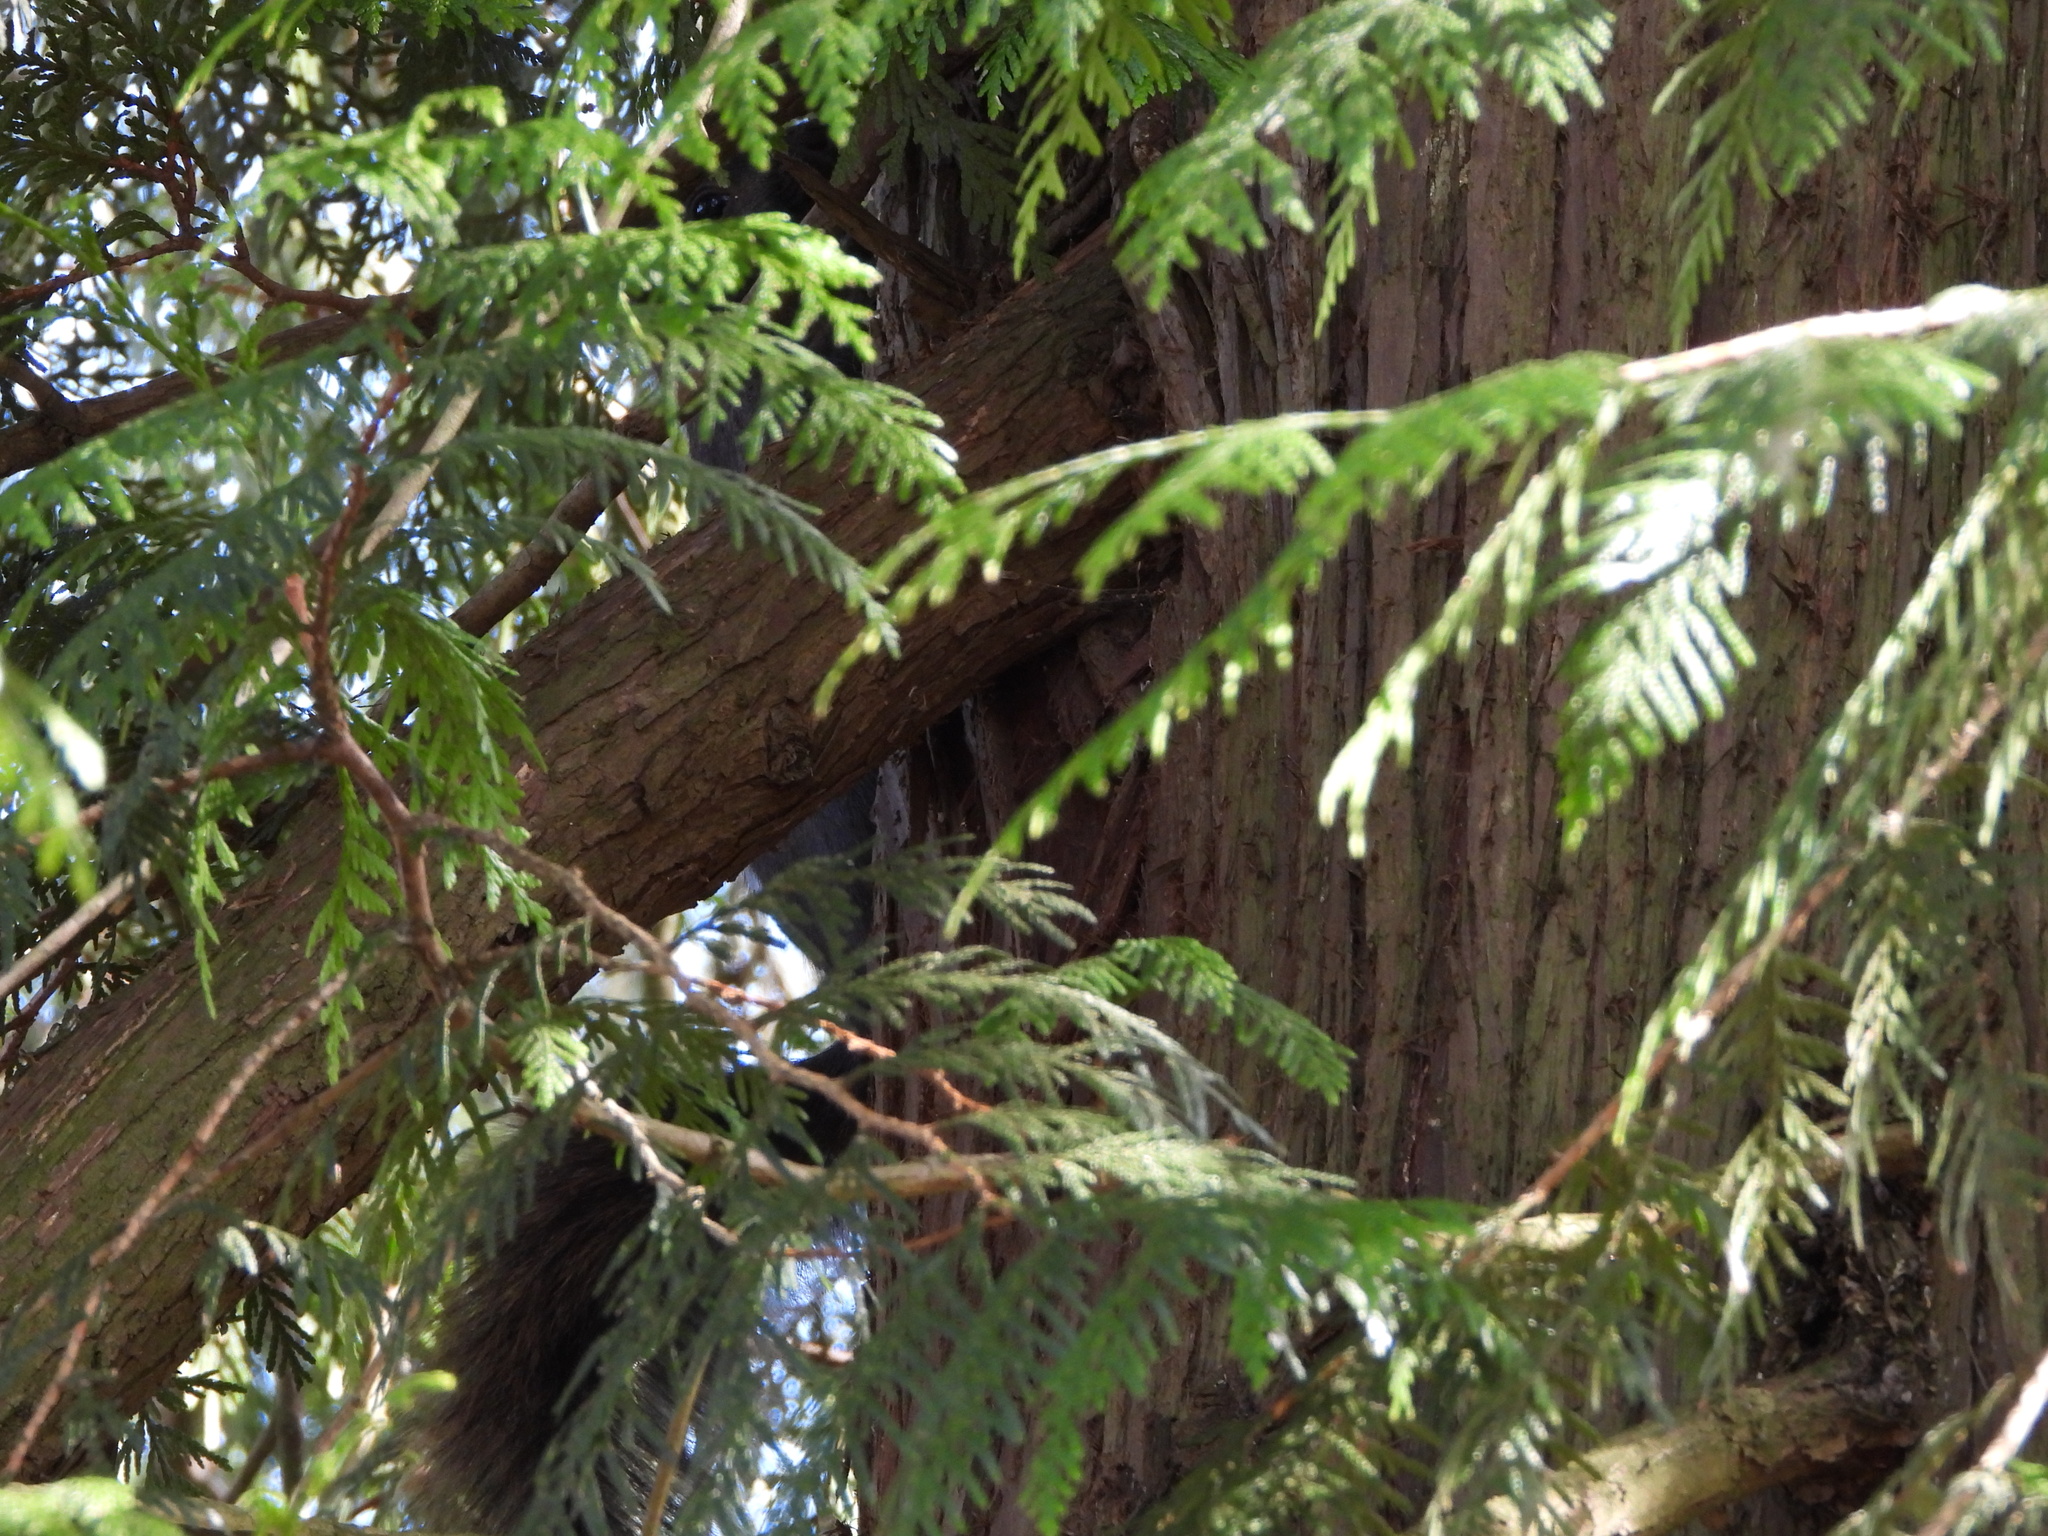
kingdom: Animalia
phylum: Chordata
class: Mammalia
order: Rodentia
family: Sciuridae
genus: Sciurus
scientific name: Sciurus carolinensis
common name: Eastern gray squirrel
